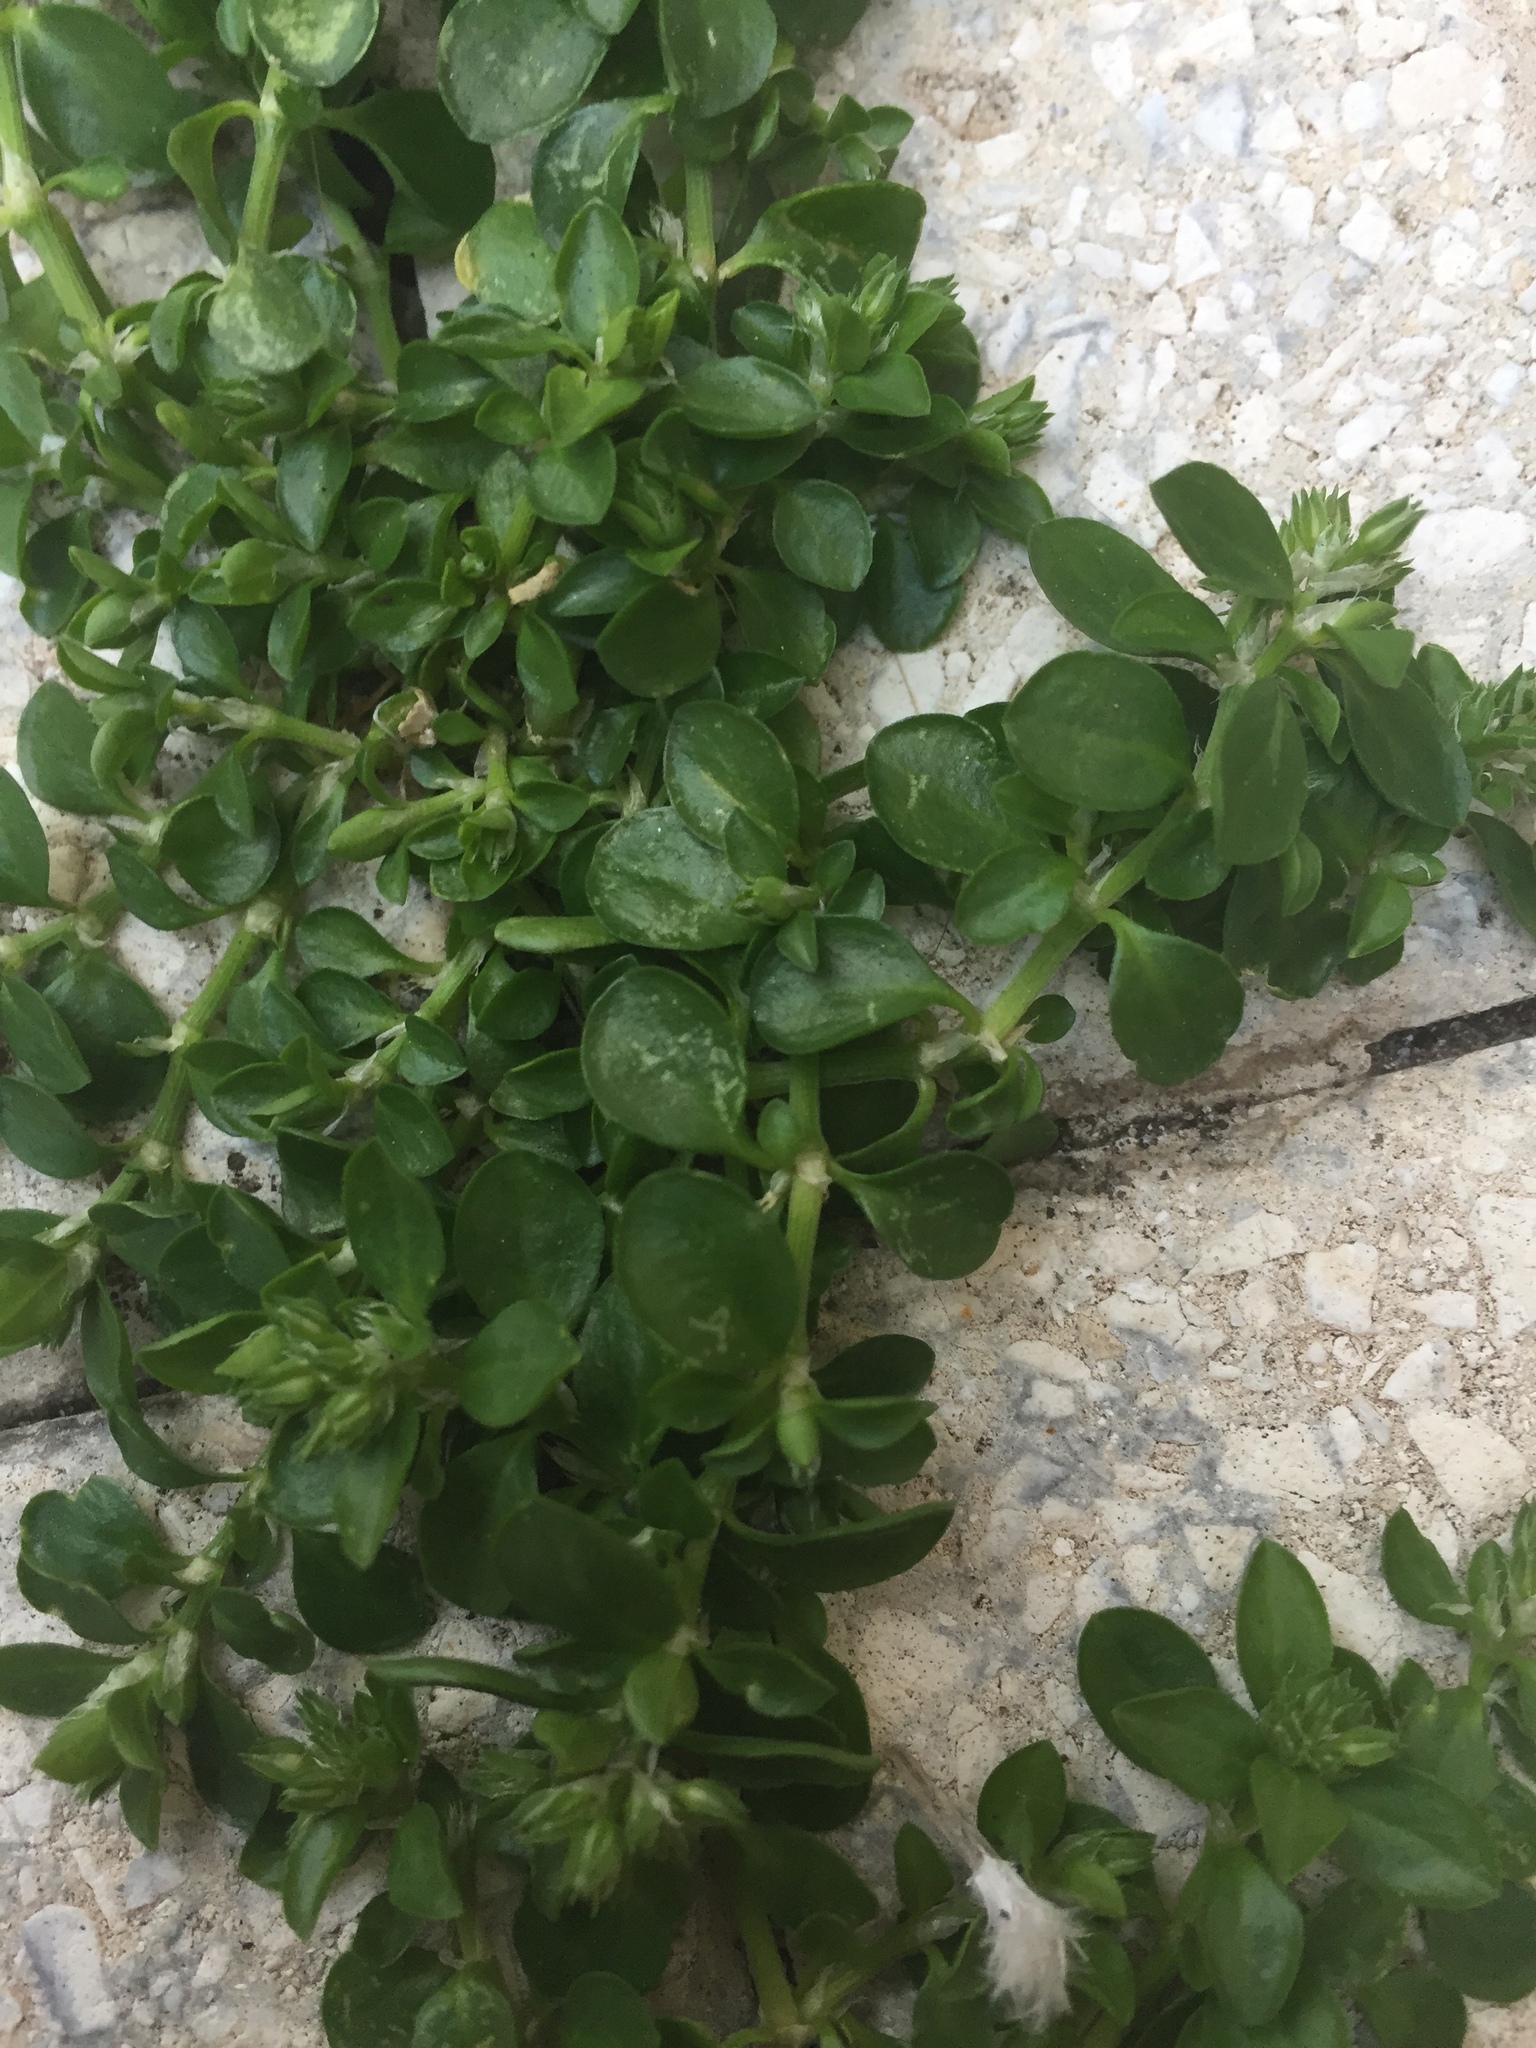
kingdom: Plantae
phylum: Tracheophyta
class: Magnoliopsida
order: Caryophyllales
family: Caryophyllaceae
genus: Polycarpon
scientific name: Polycarpon tetraphyllum
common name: Four-leaved all-seed
